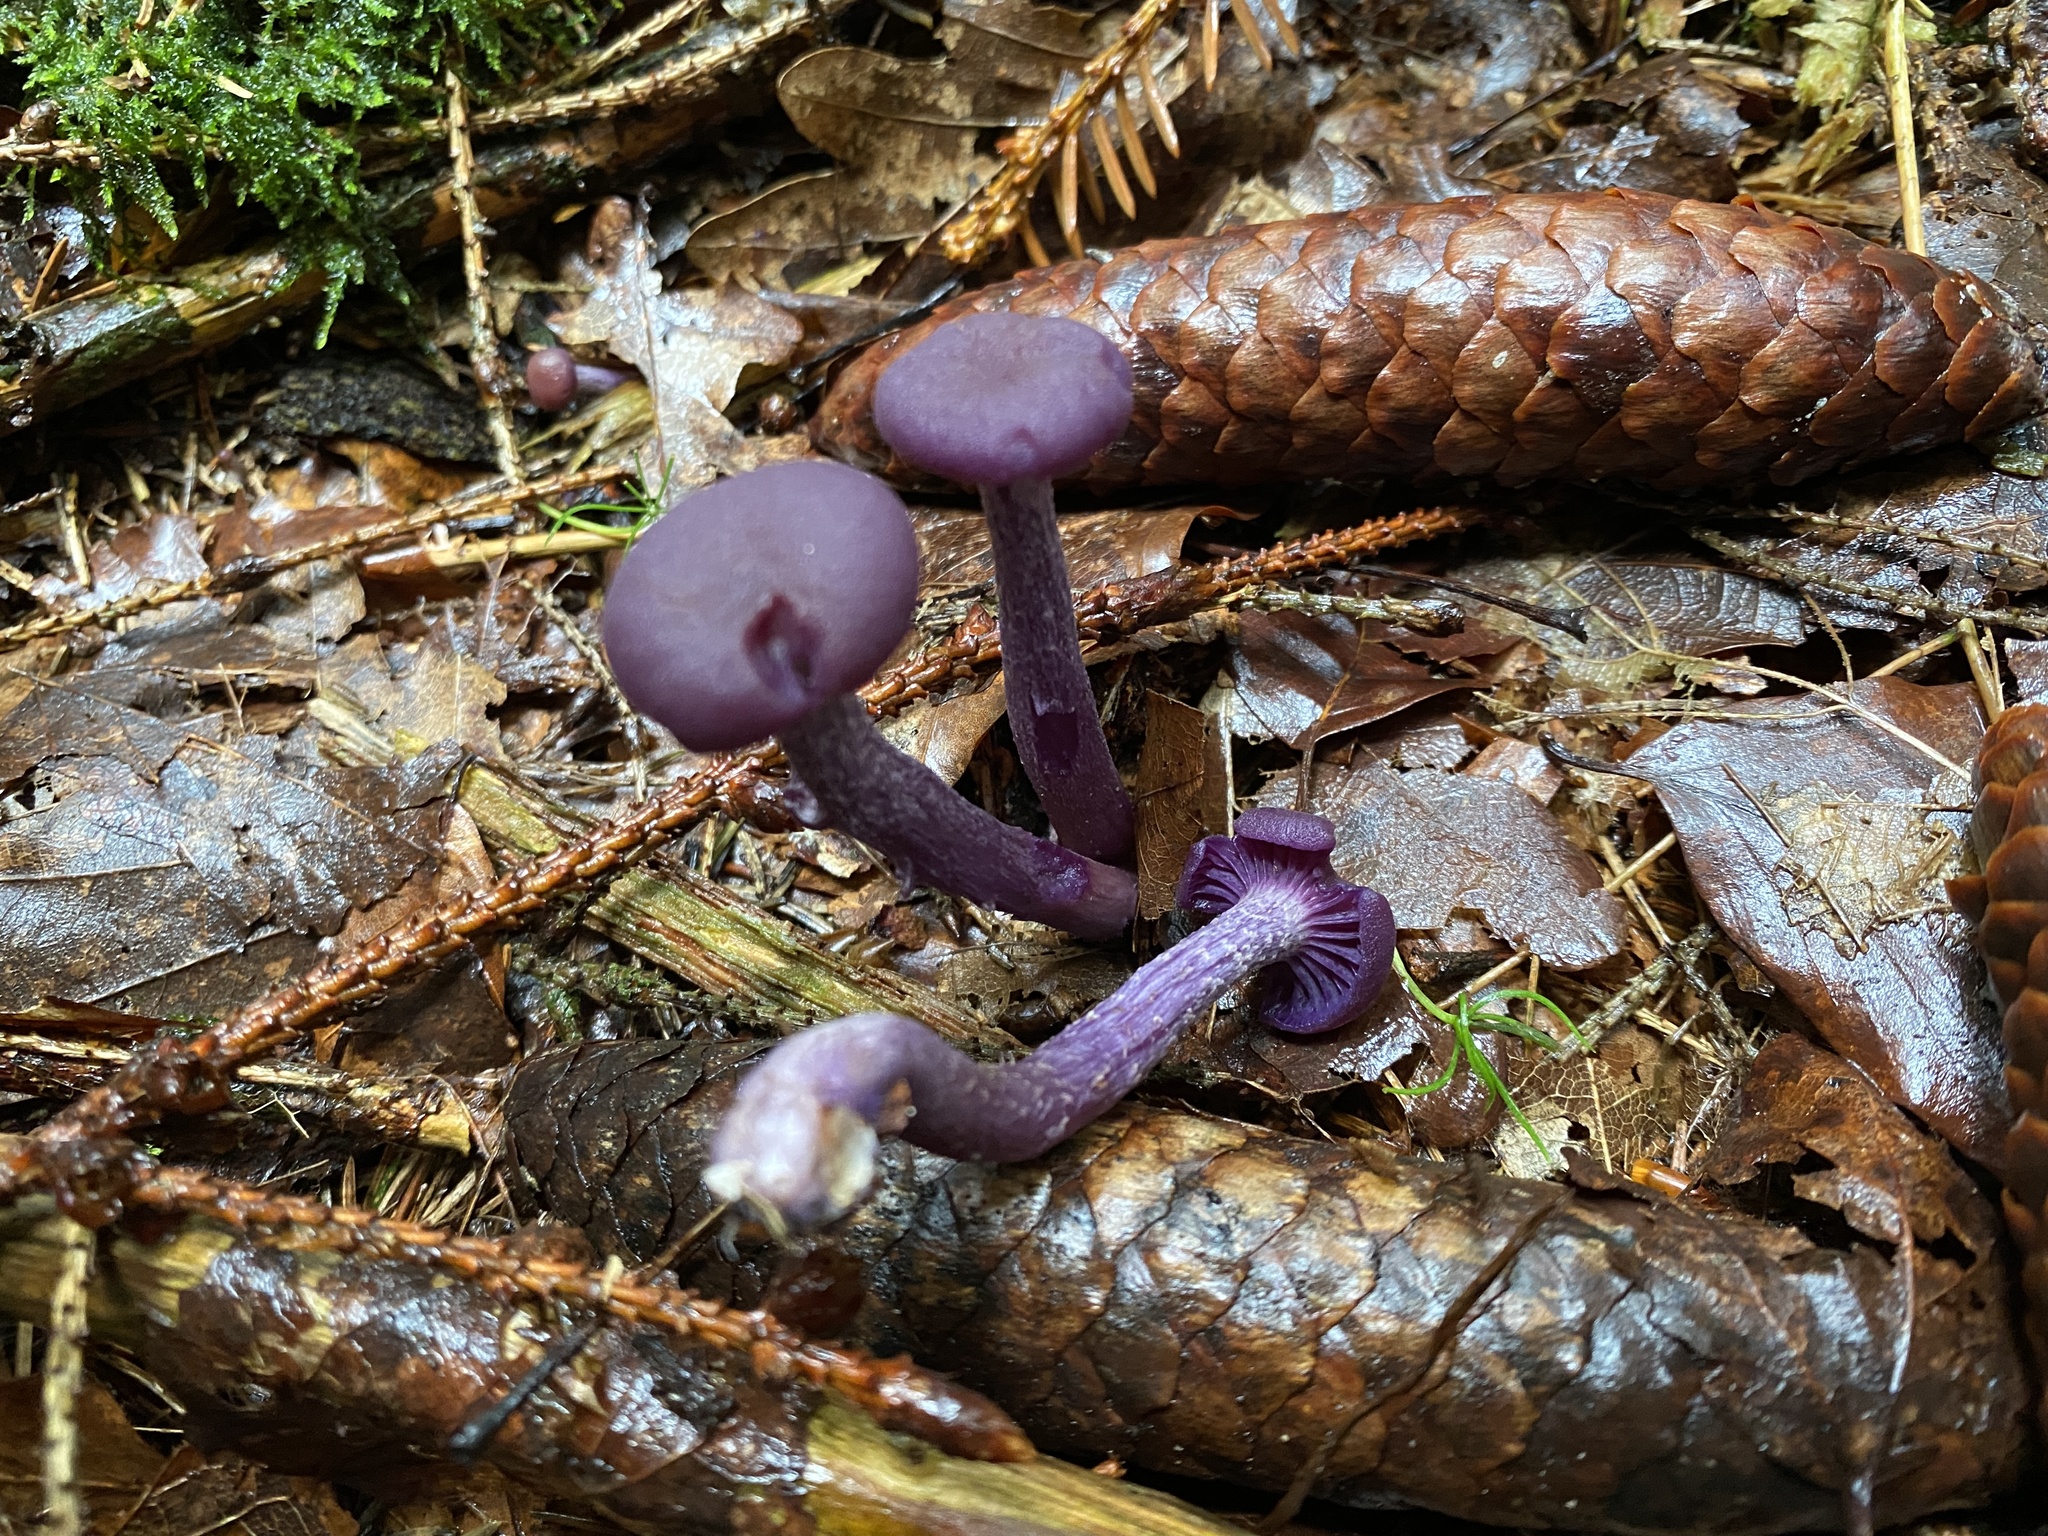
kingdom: Fungi
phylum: Basidiomycota
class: Agaricomycetes
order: Agaricales
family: Hydnangiaceae
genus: Laccaria
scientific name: Laccaria amethystina
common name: Amethyst deceiver
